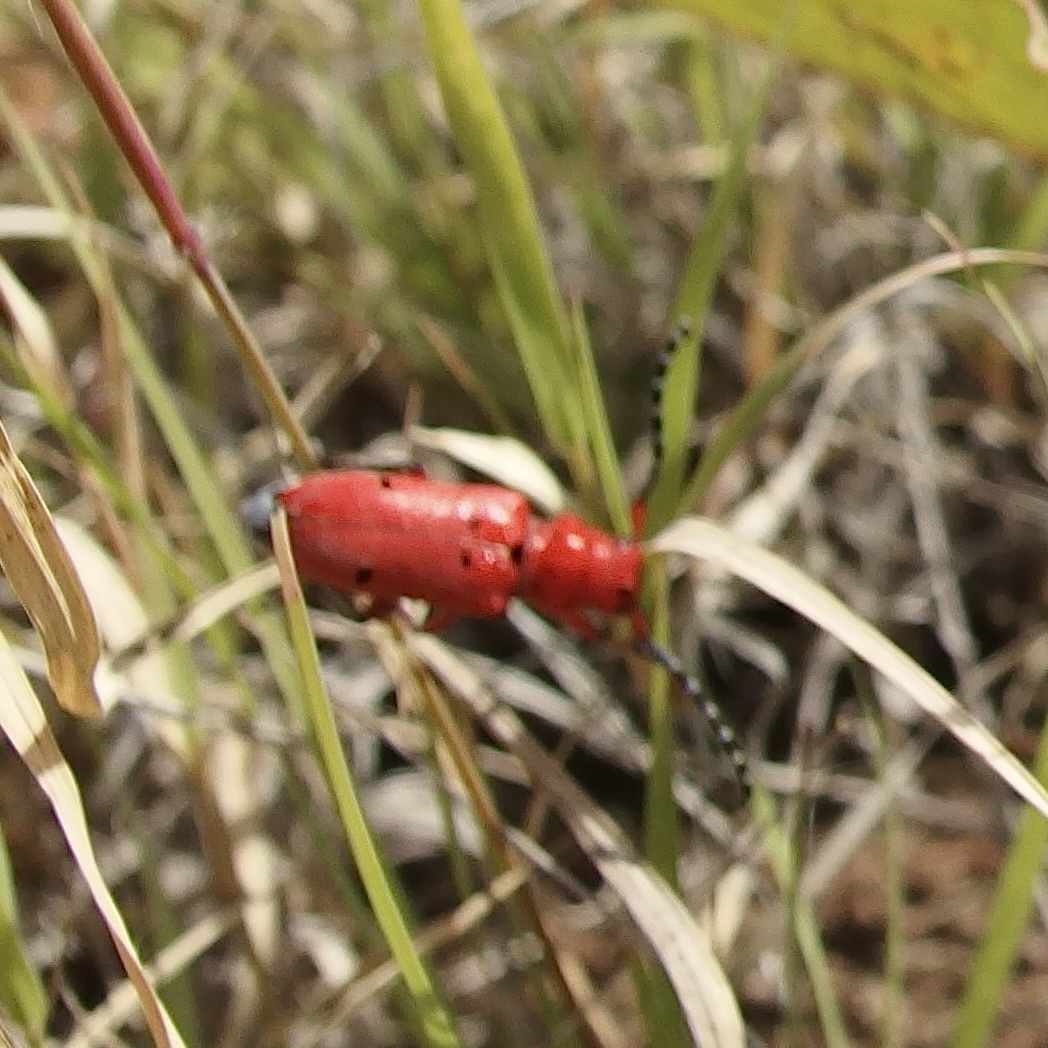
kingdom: Animalia
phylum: Arthropoda
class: Insecta
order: Coleoptera
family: Cerambycidae
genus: Tetraopes
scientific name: Tetraopes femoratus
